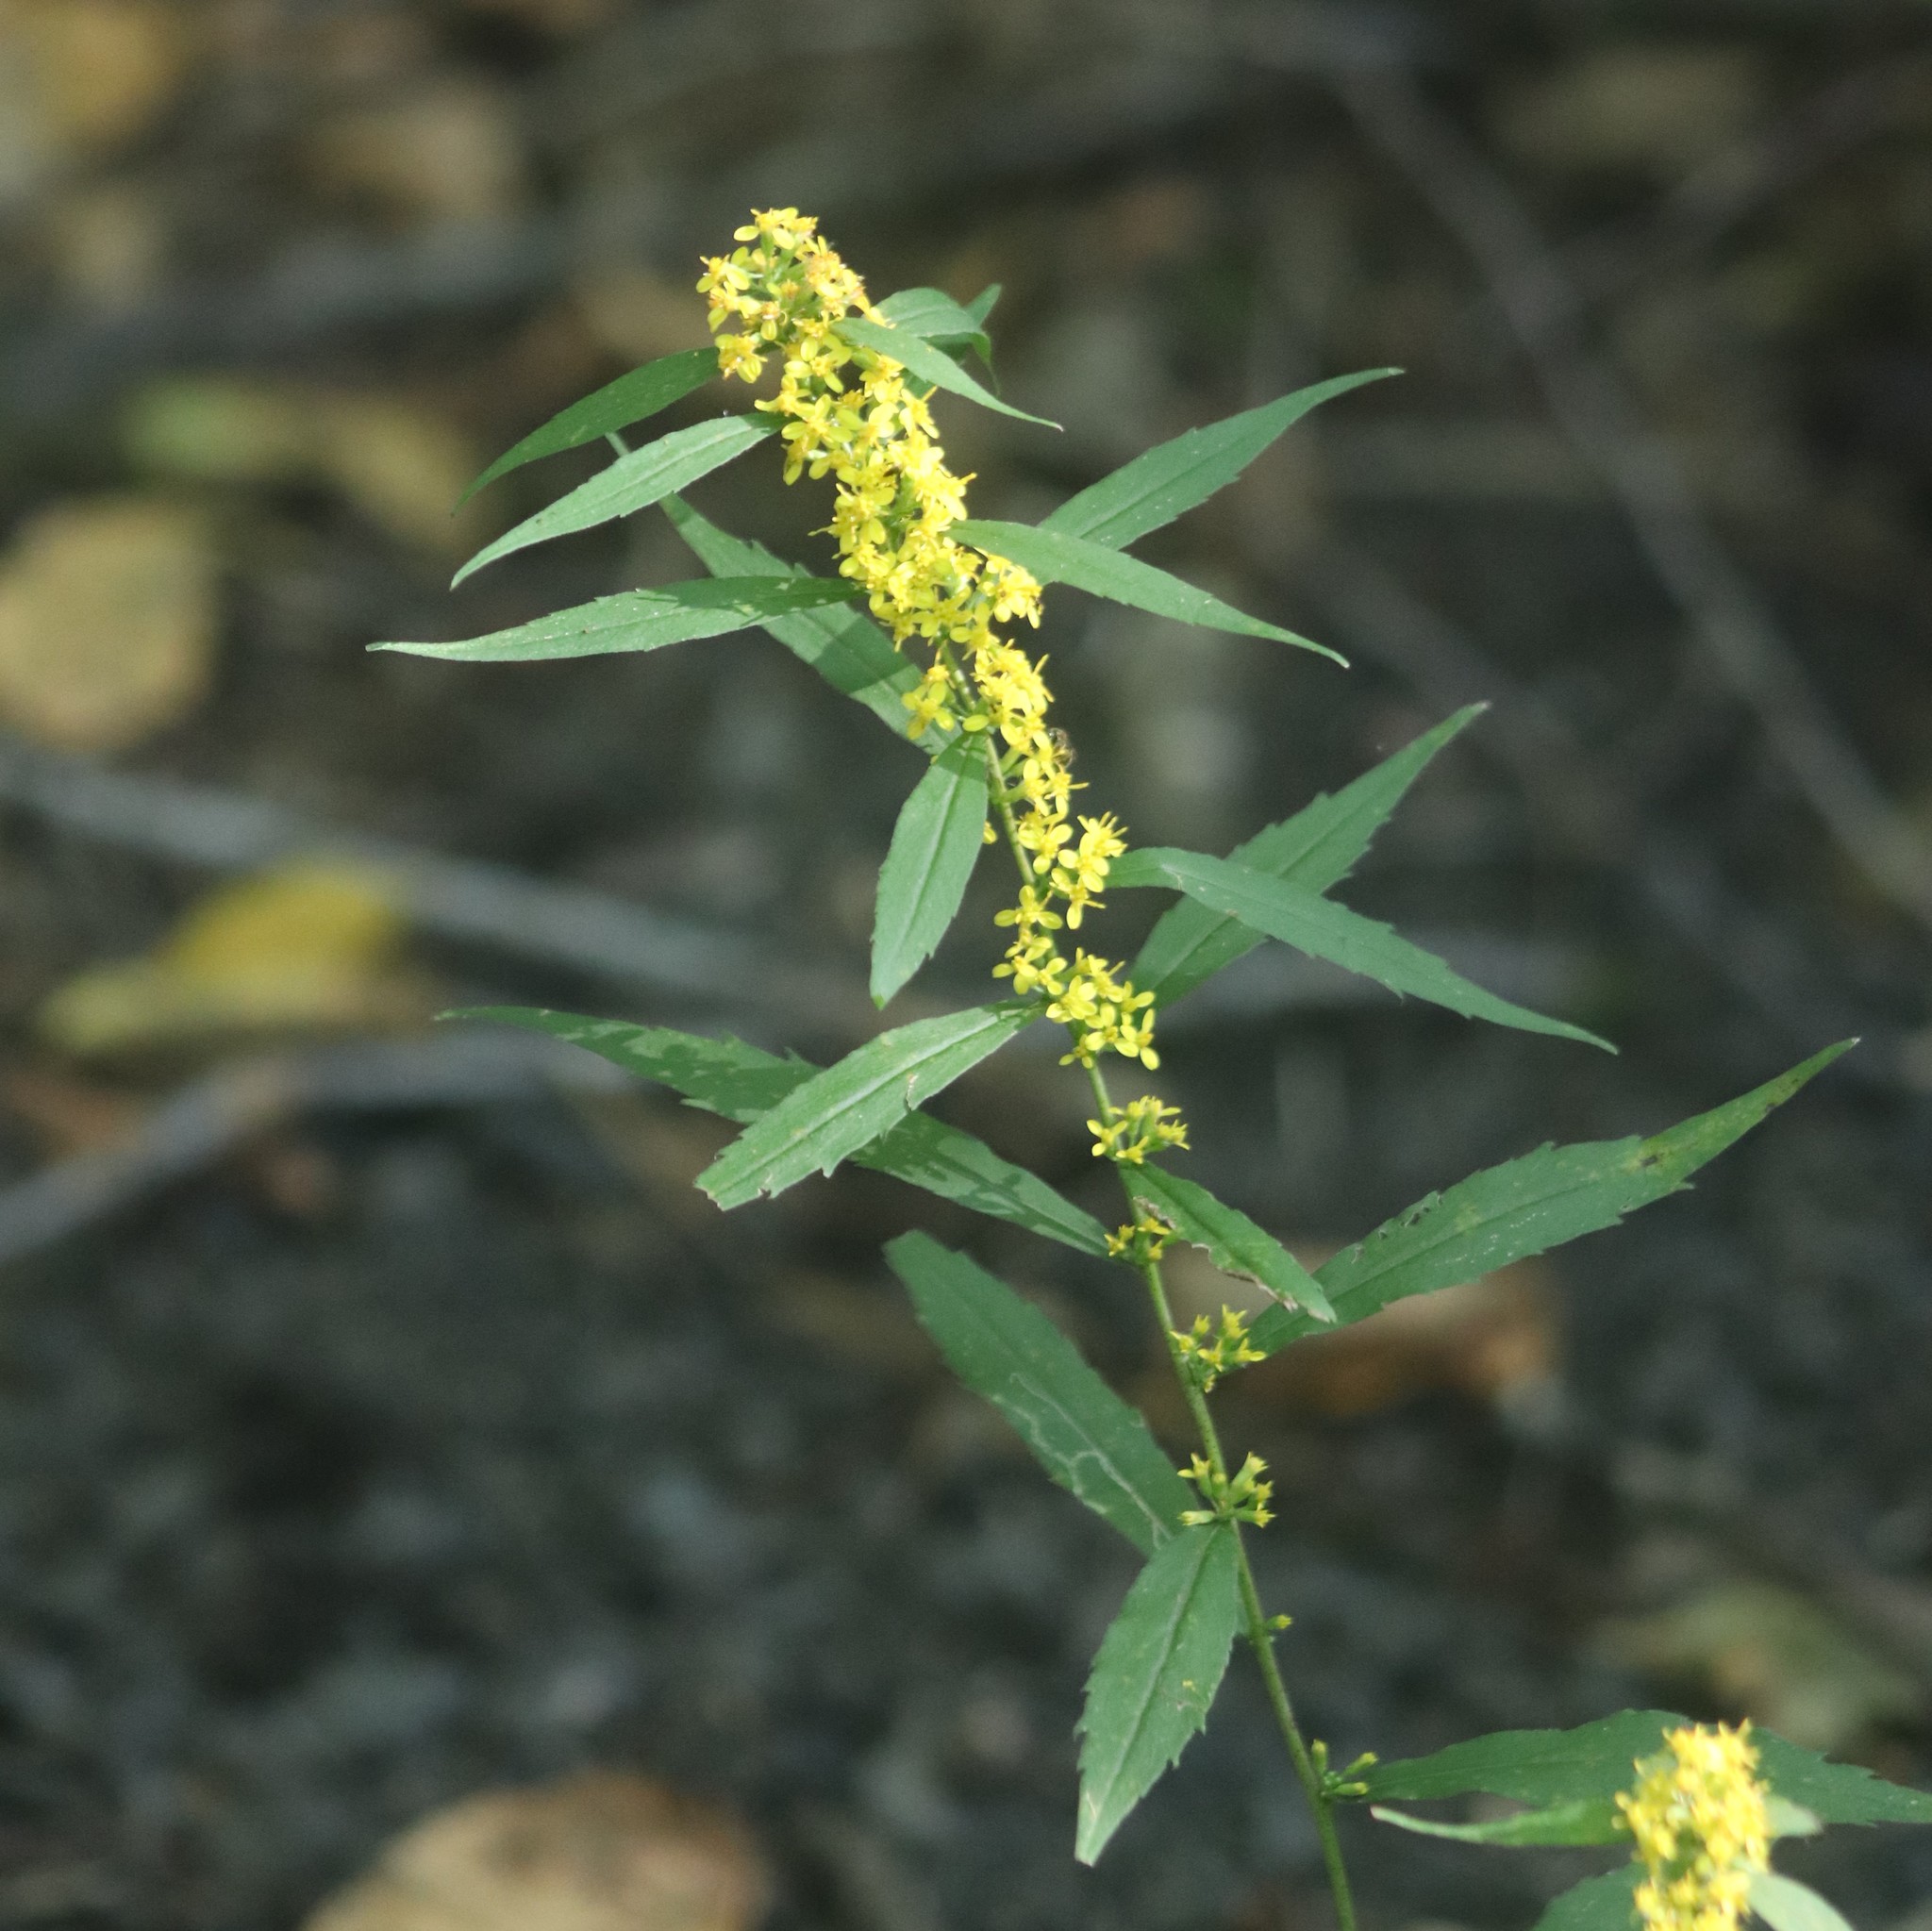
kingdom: Plantae
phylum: Tracheophyta
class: Magnoliopsida
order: Asterales
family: Asteraceae
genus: Solidago
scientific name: Solidago caesia
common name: Woodland goldenrod
